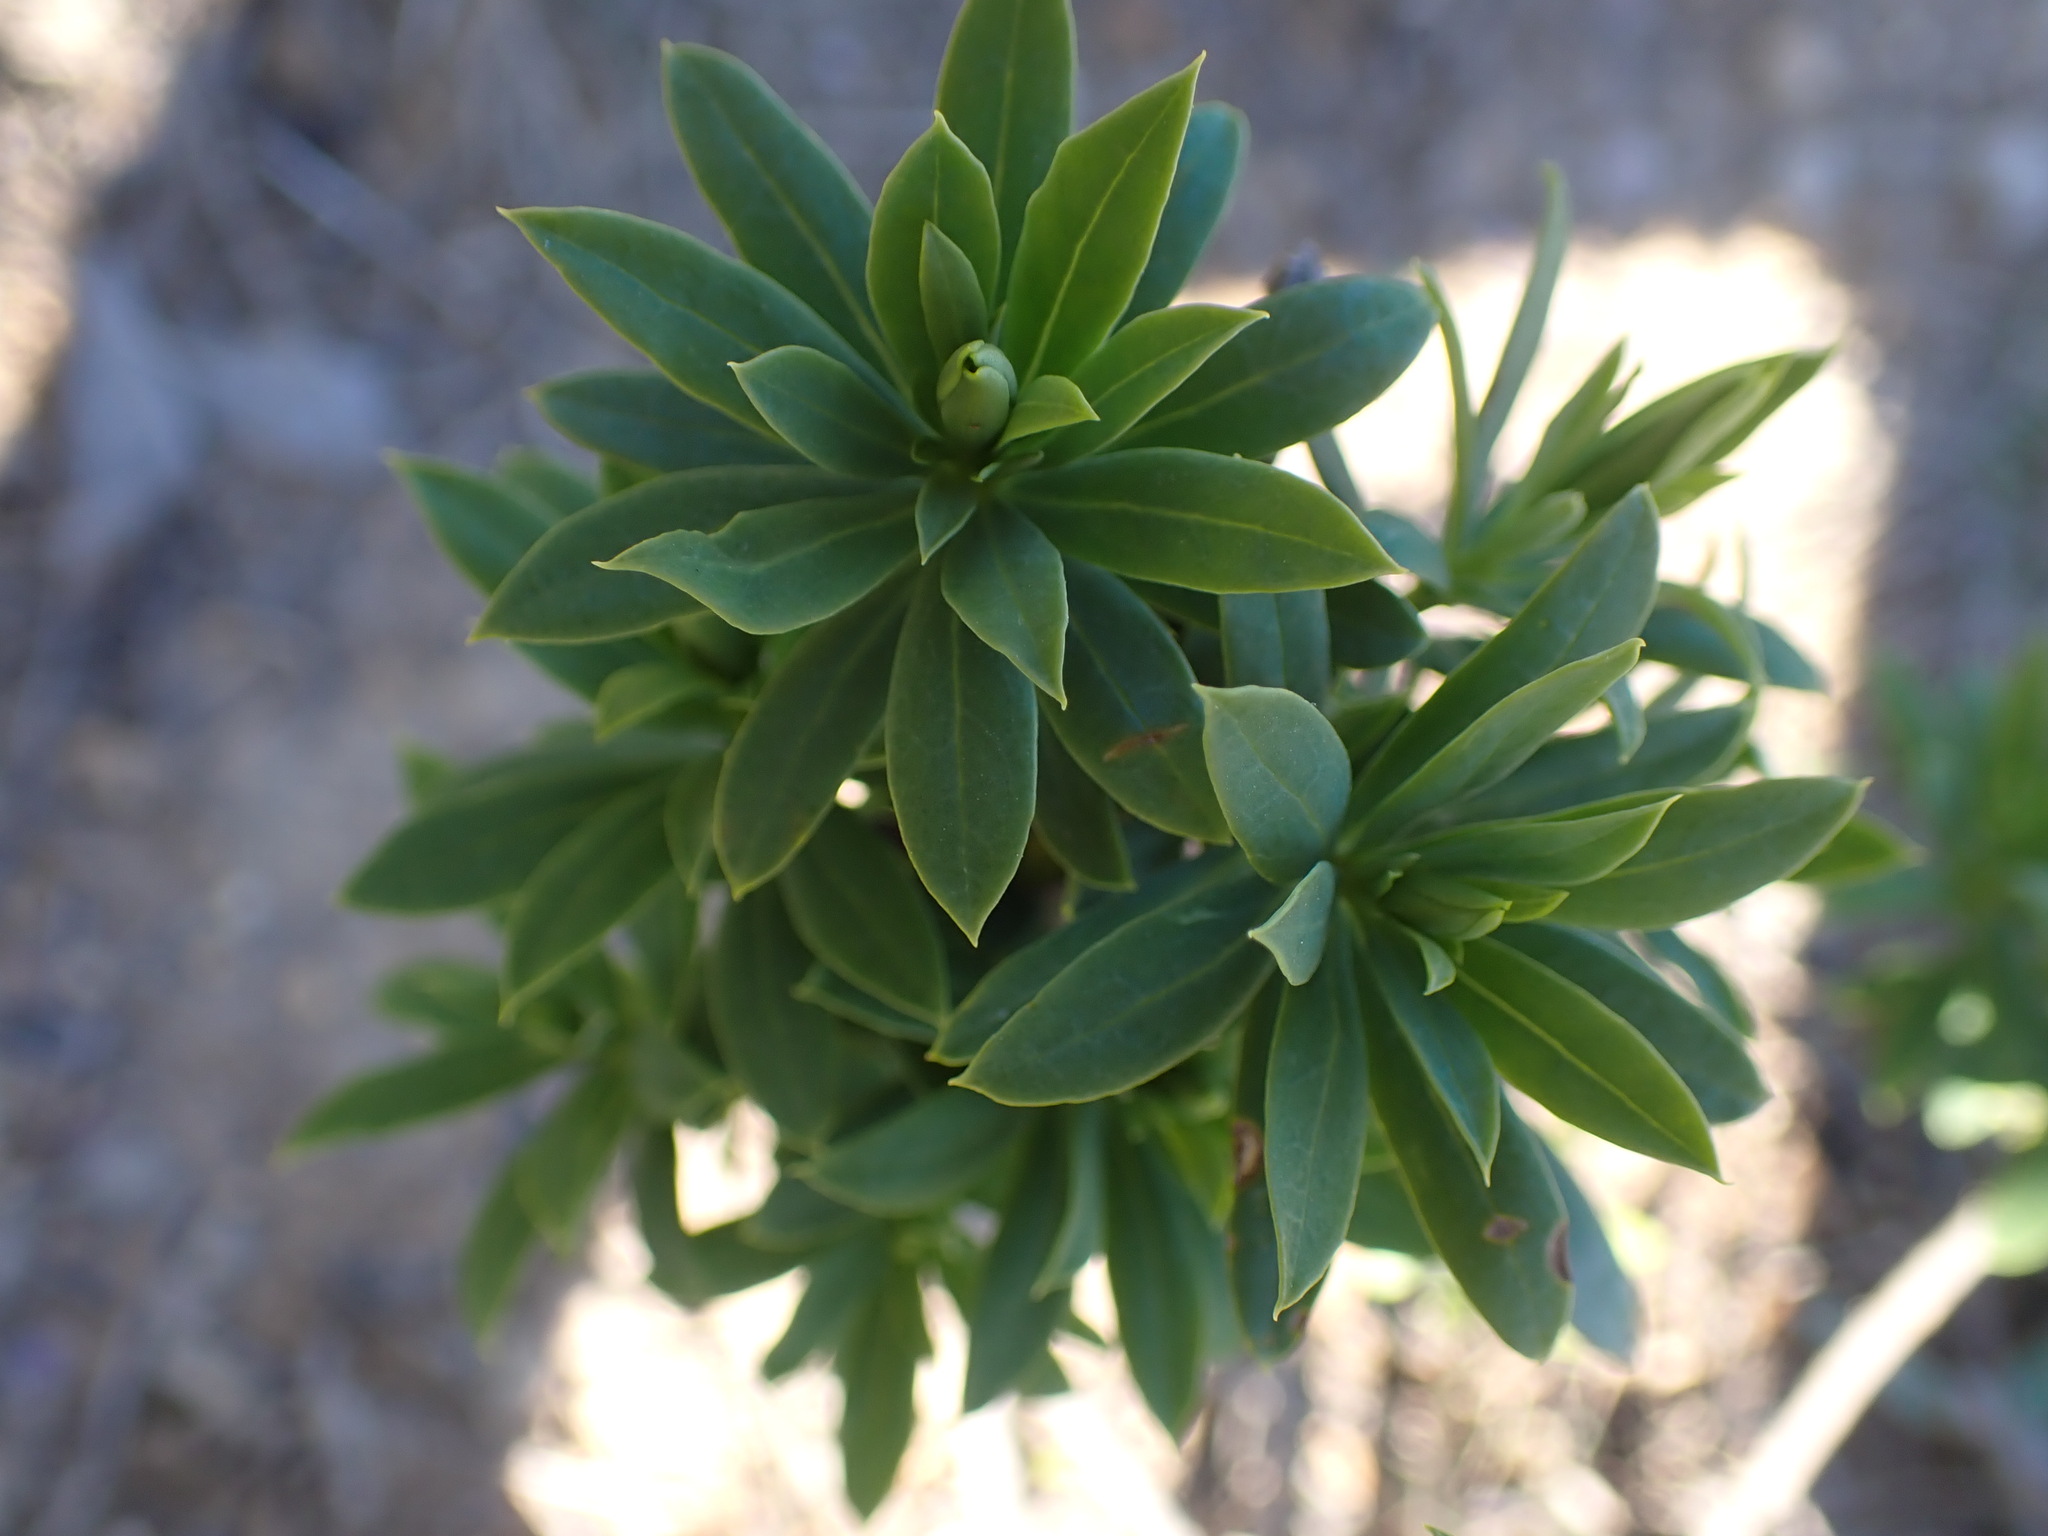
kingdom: Plantae
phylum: Tracheophyta
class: Magnoliopsida
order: Malvales
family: Thymelaeaceae
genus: Daphne
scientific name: Daphne gnidium
